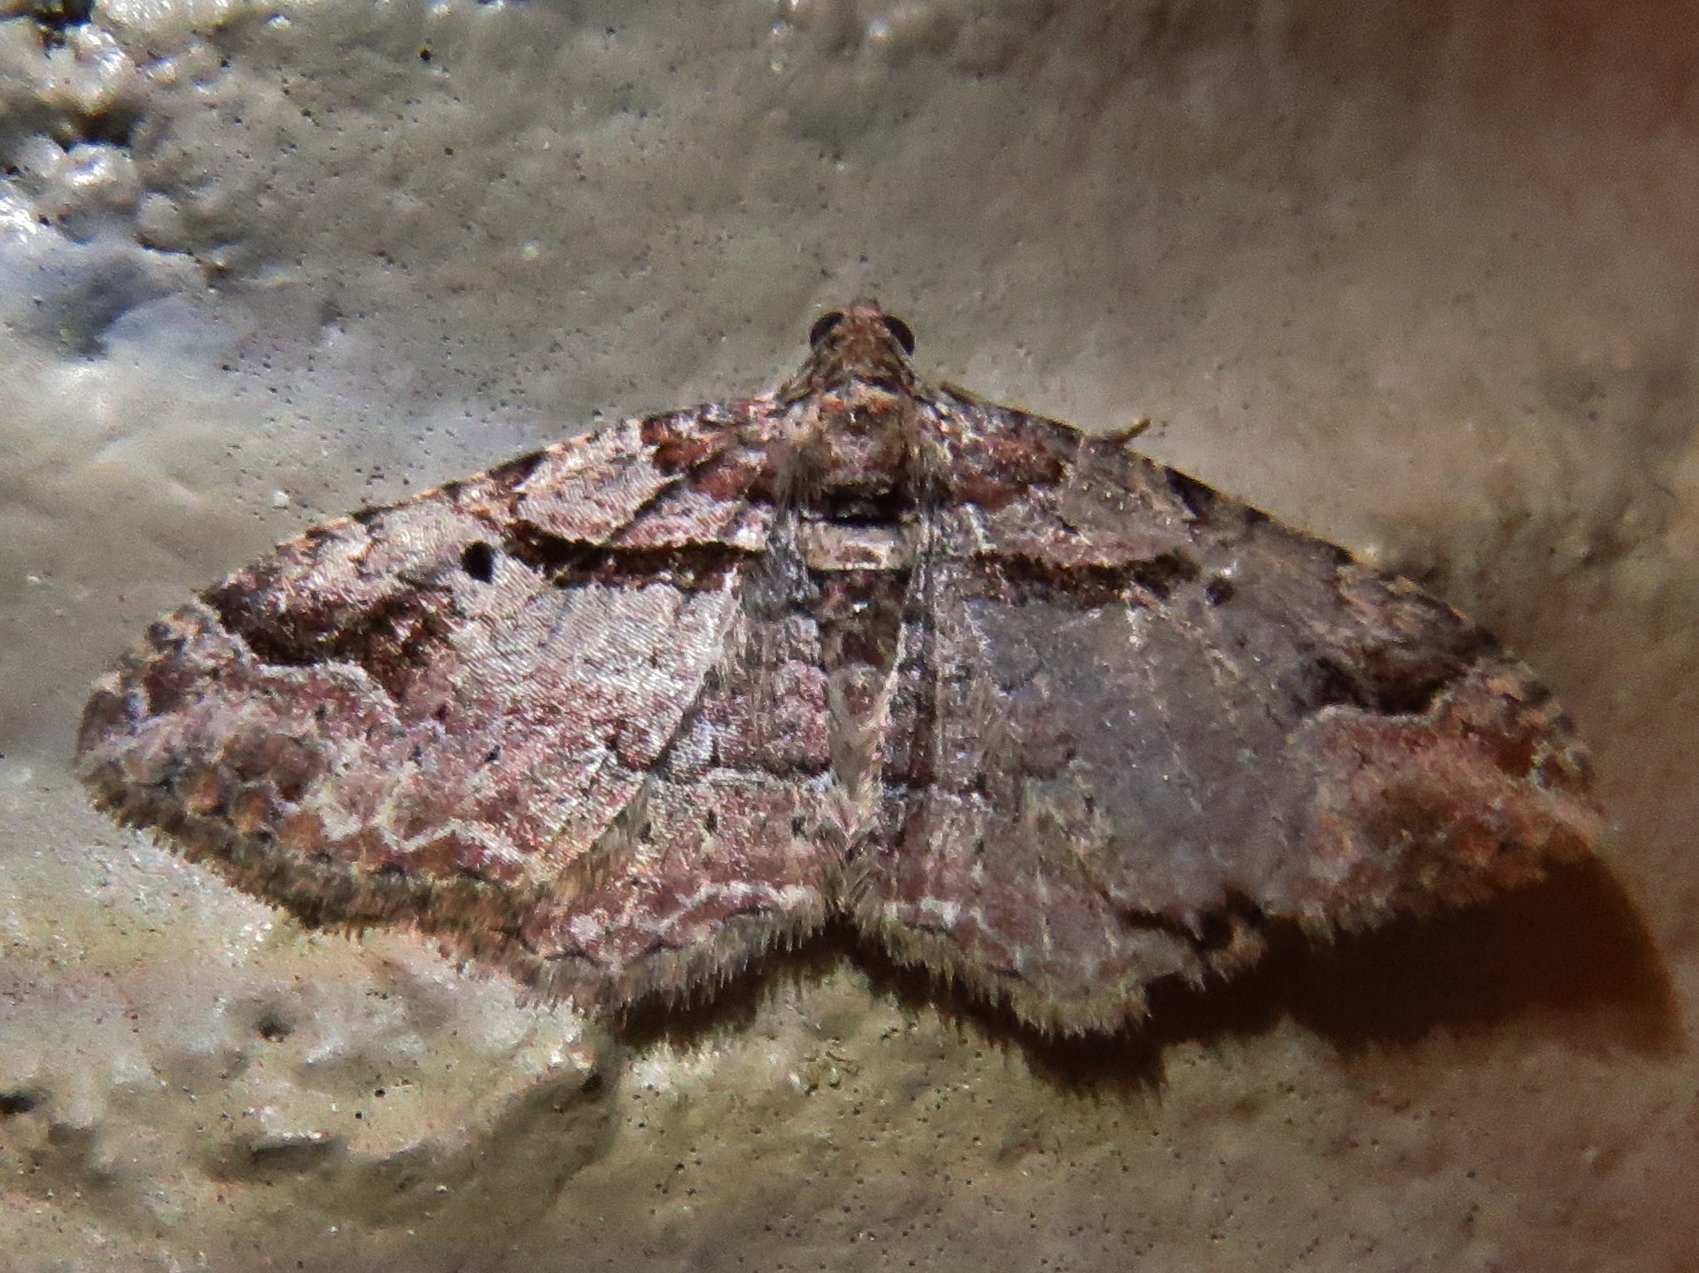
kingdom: Animalia
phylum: Arthropoda
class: Insecta
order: Lepidoptera
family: Geometridae
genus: Costaconvexa
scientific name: Costaconvexa centrostrigaria
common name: Bent-line carpet
